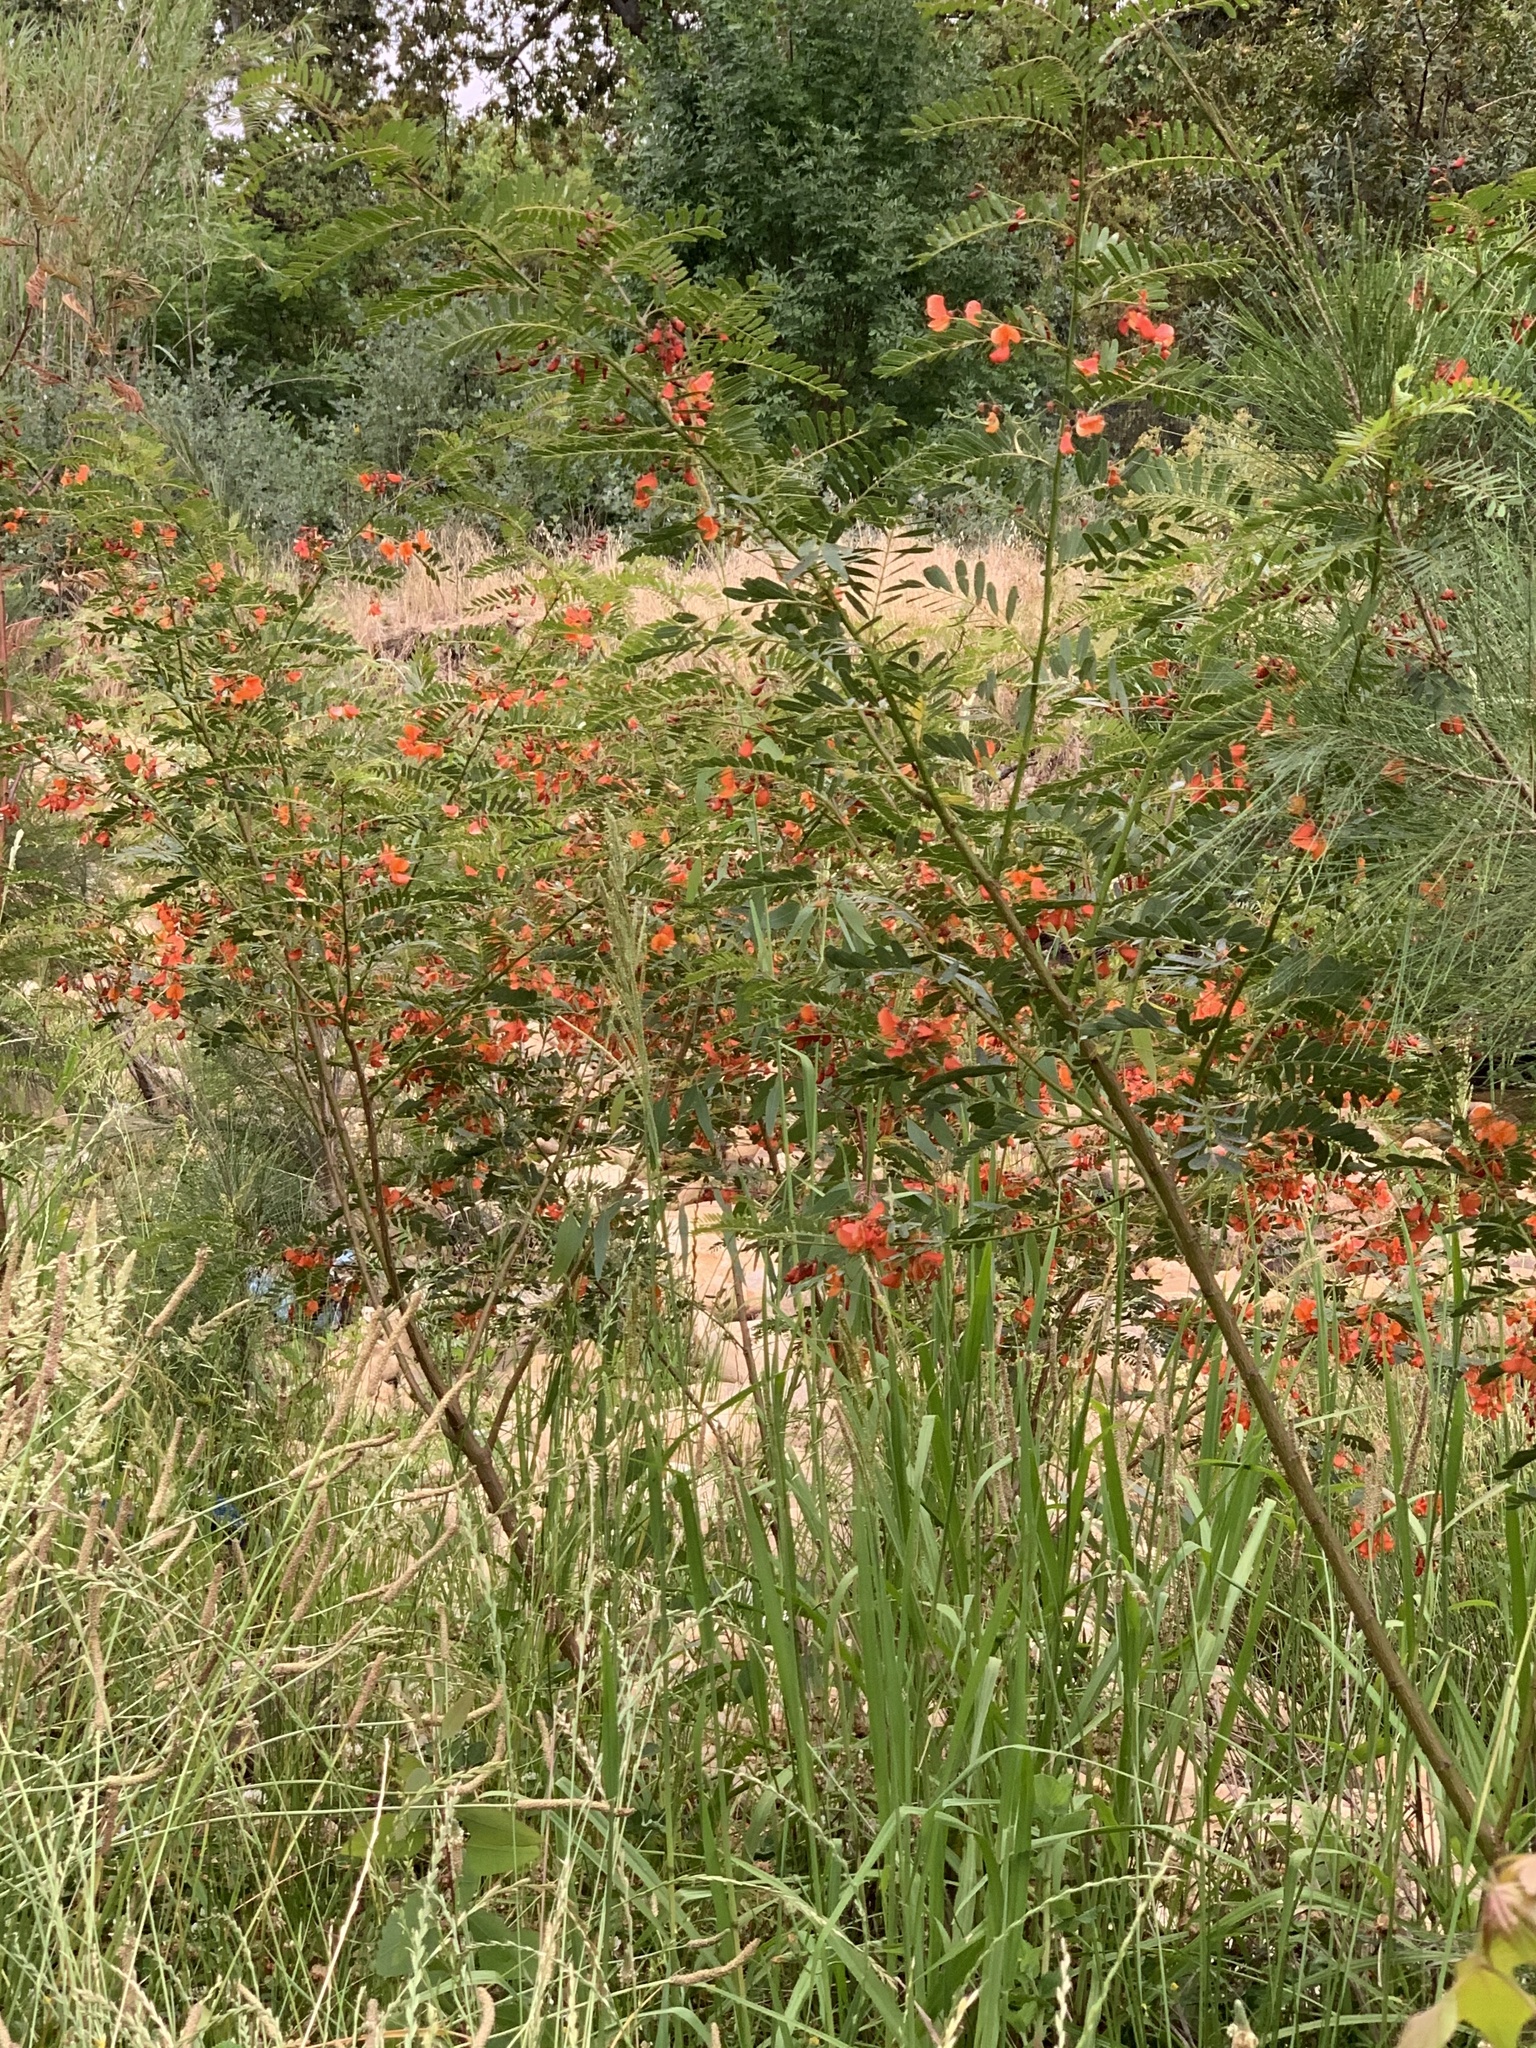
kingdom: Plantae
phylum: Tracheophyta
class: Magnoliopsida
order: Fabales
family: Fabaceae
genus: Sesbania
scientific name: Sesbania punicea
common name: Rattlebox
